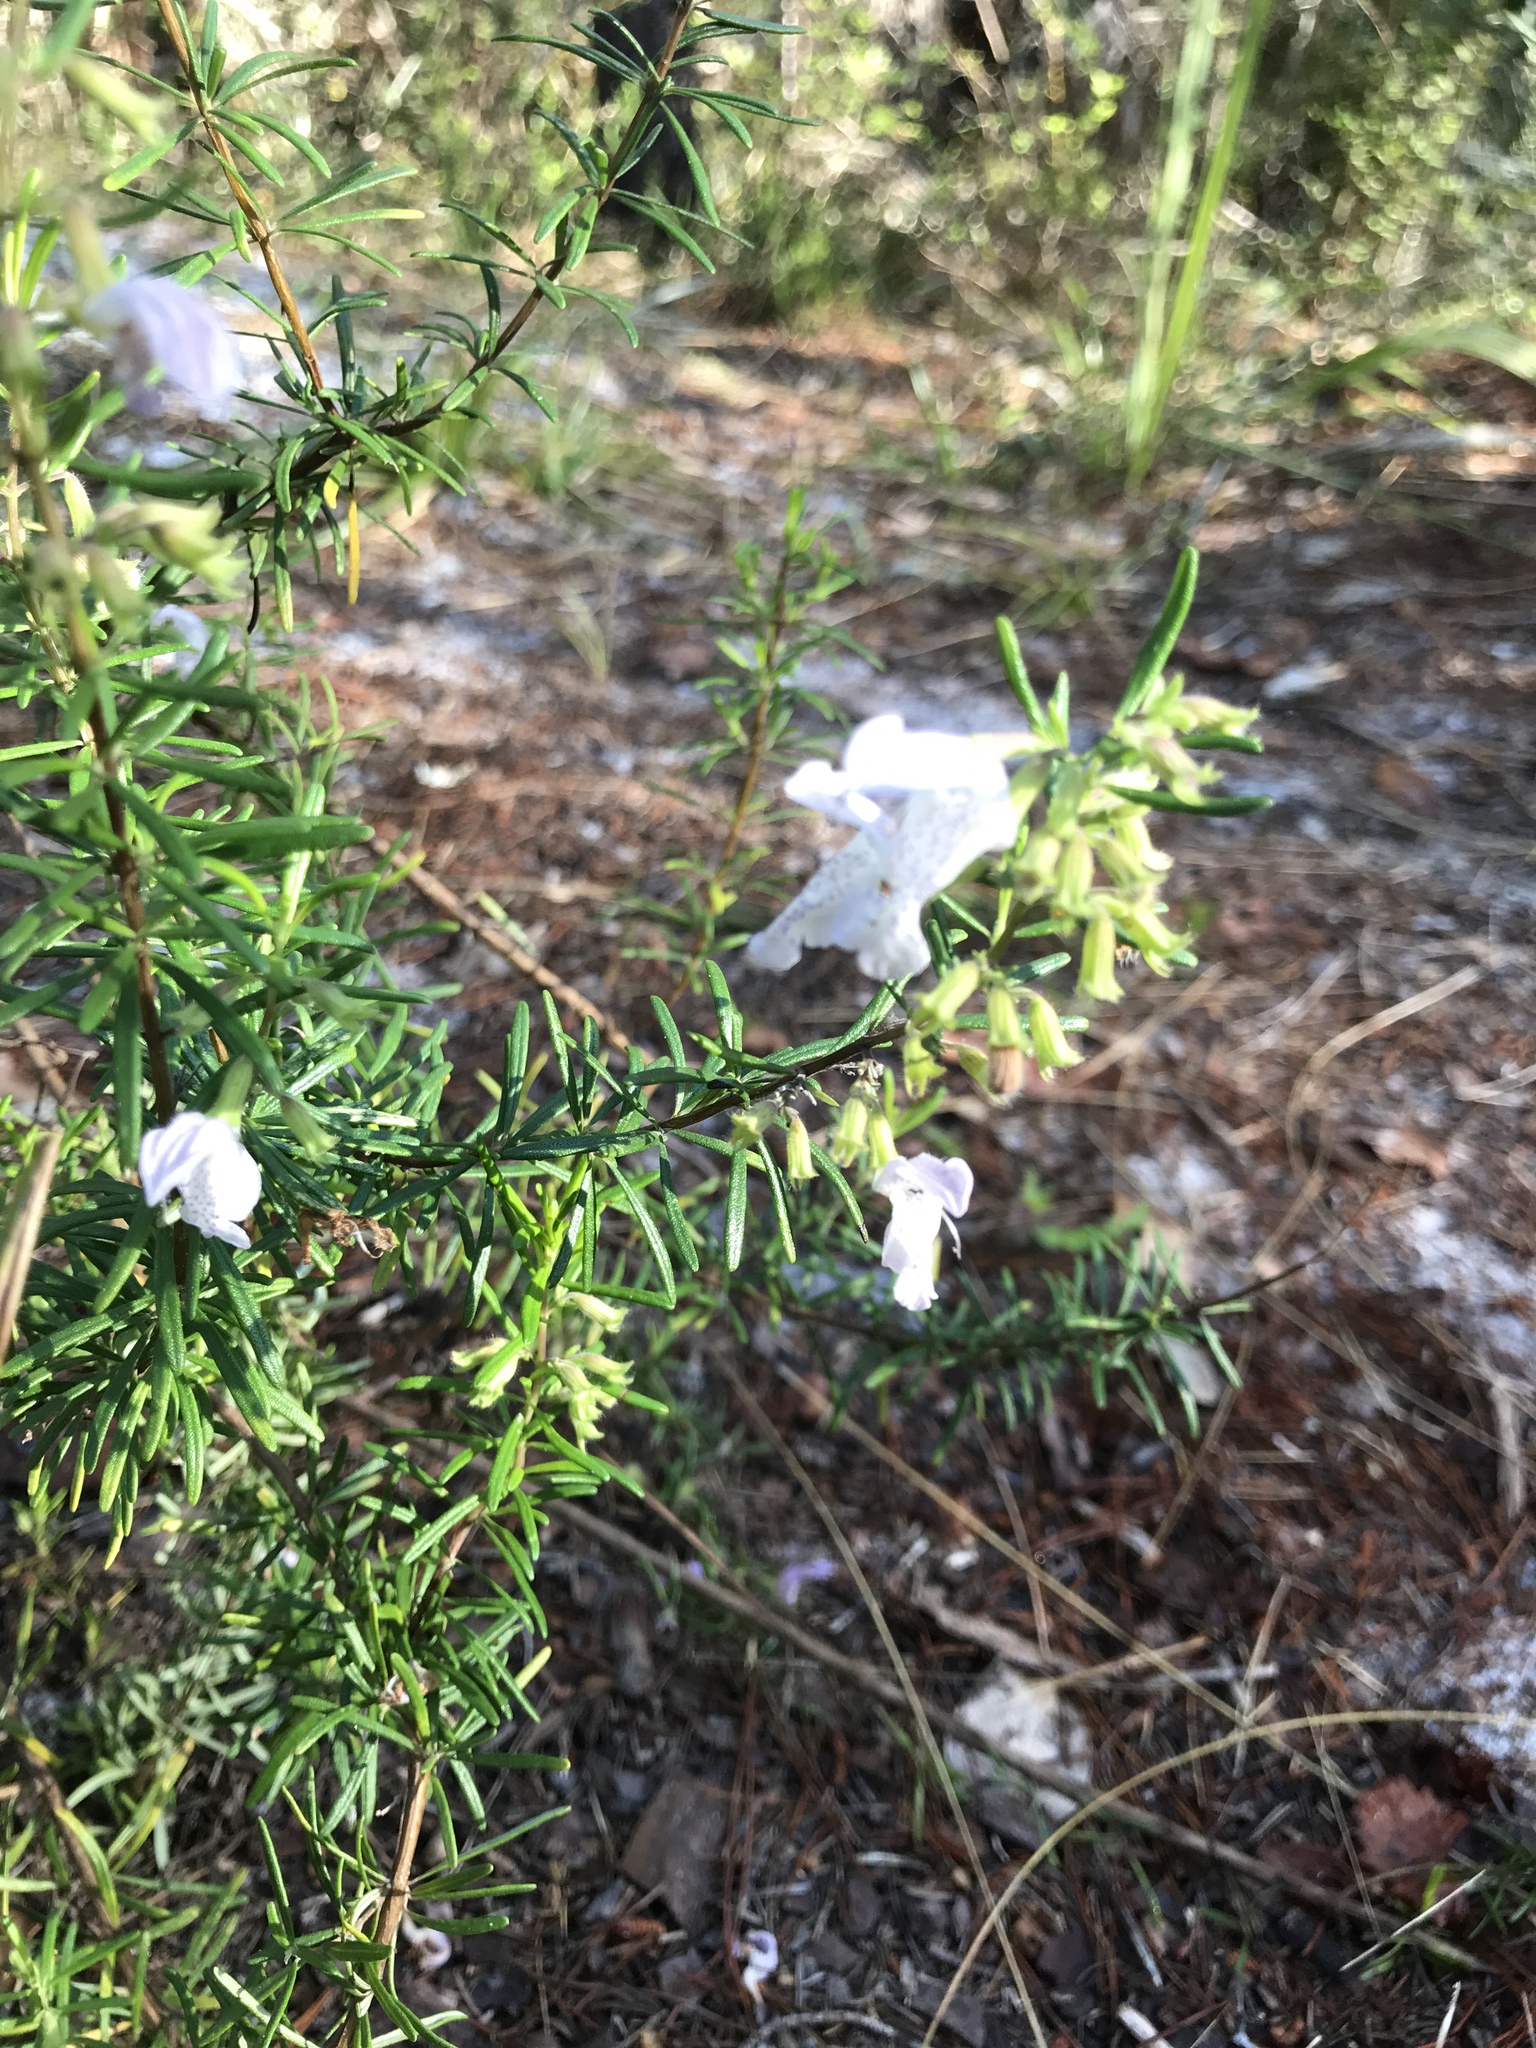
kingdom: Plantae
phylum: Tracheophyta
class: Magnoliopsida
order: Lamiales
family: Lamiaceae
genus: Conradina
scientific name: Conradina grandiflora
